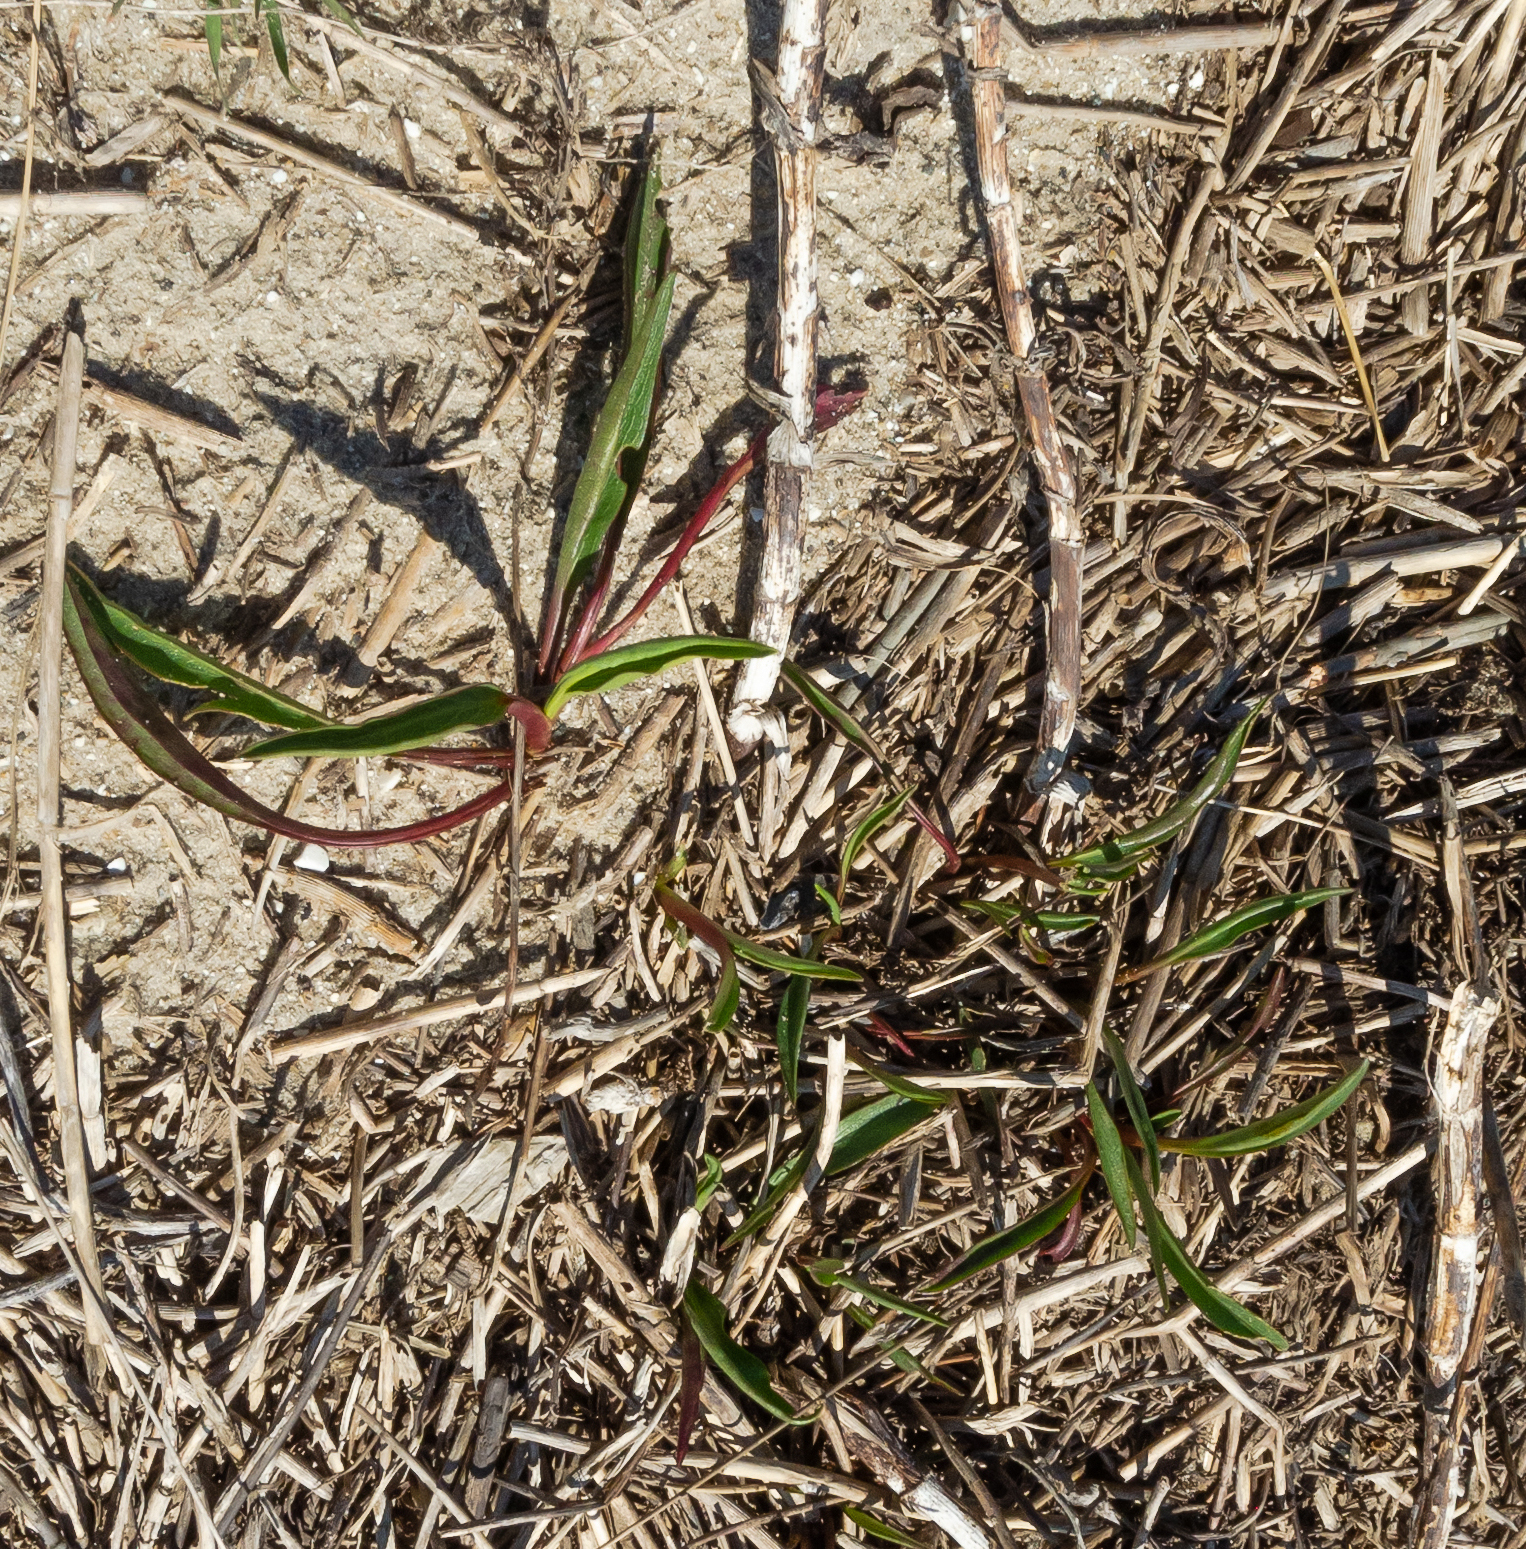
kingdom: Plantae
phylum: Tracheophyta
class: Magnoliopsida
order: Asterales
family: Asteraceae
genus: Solidago
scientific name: Solidago sempervirens
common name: Salt-marsh goldenrod
